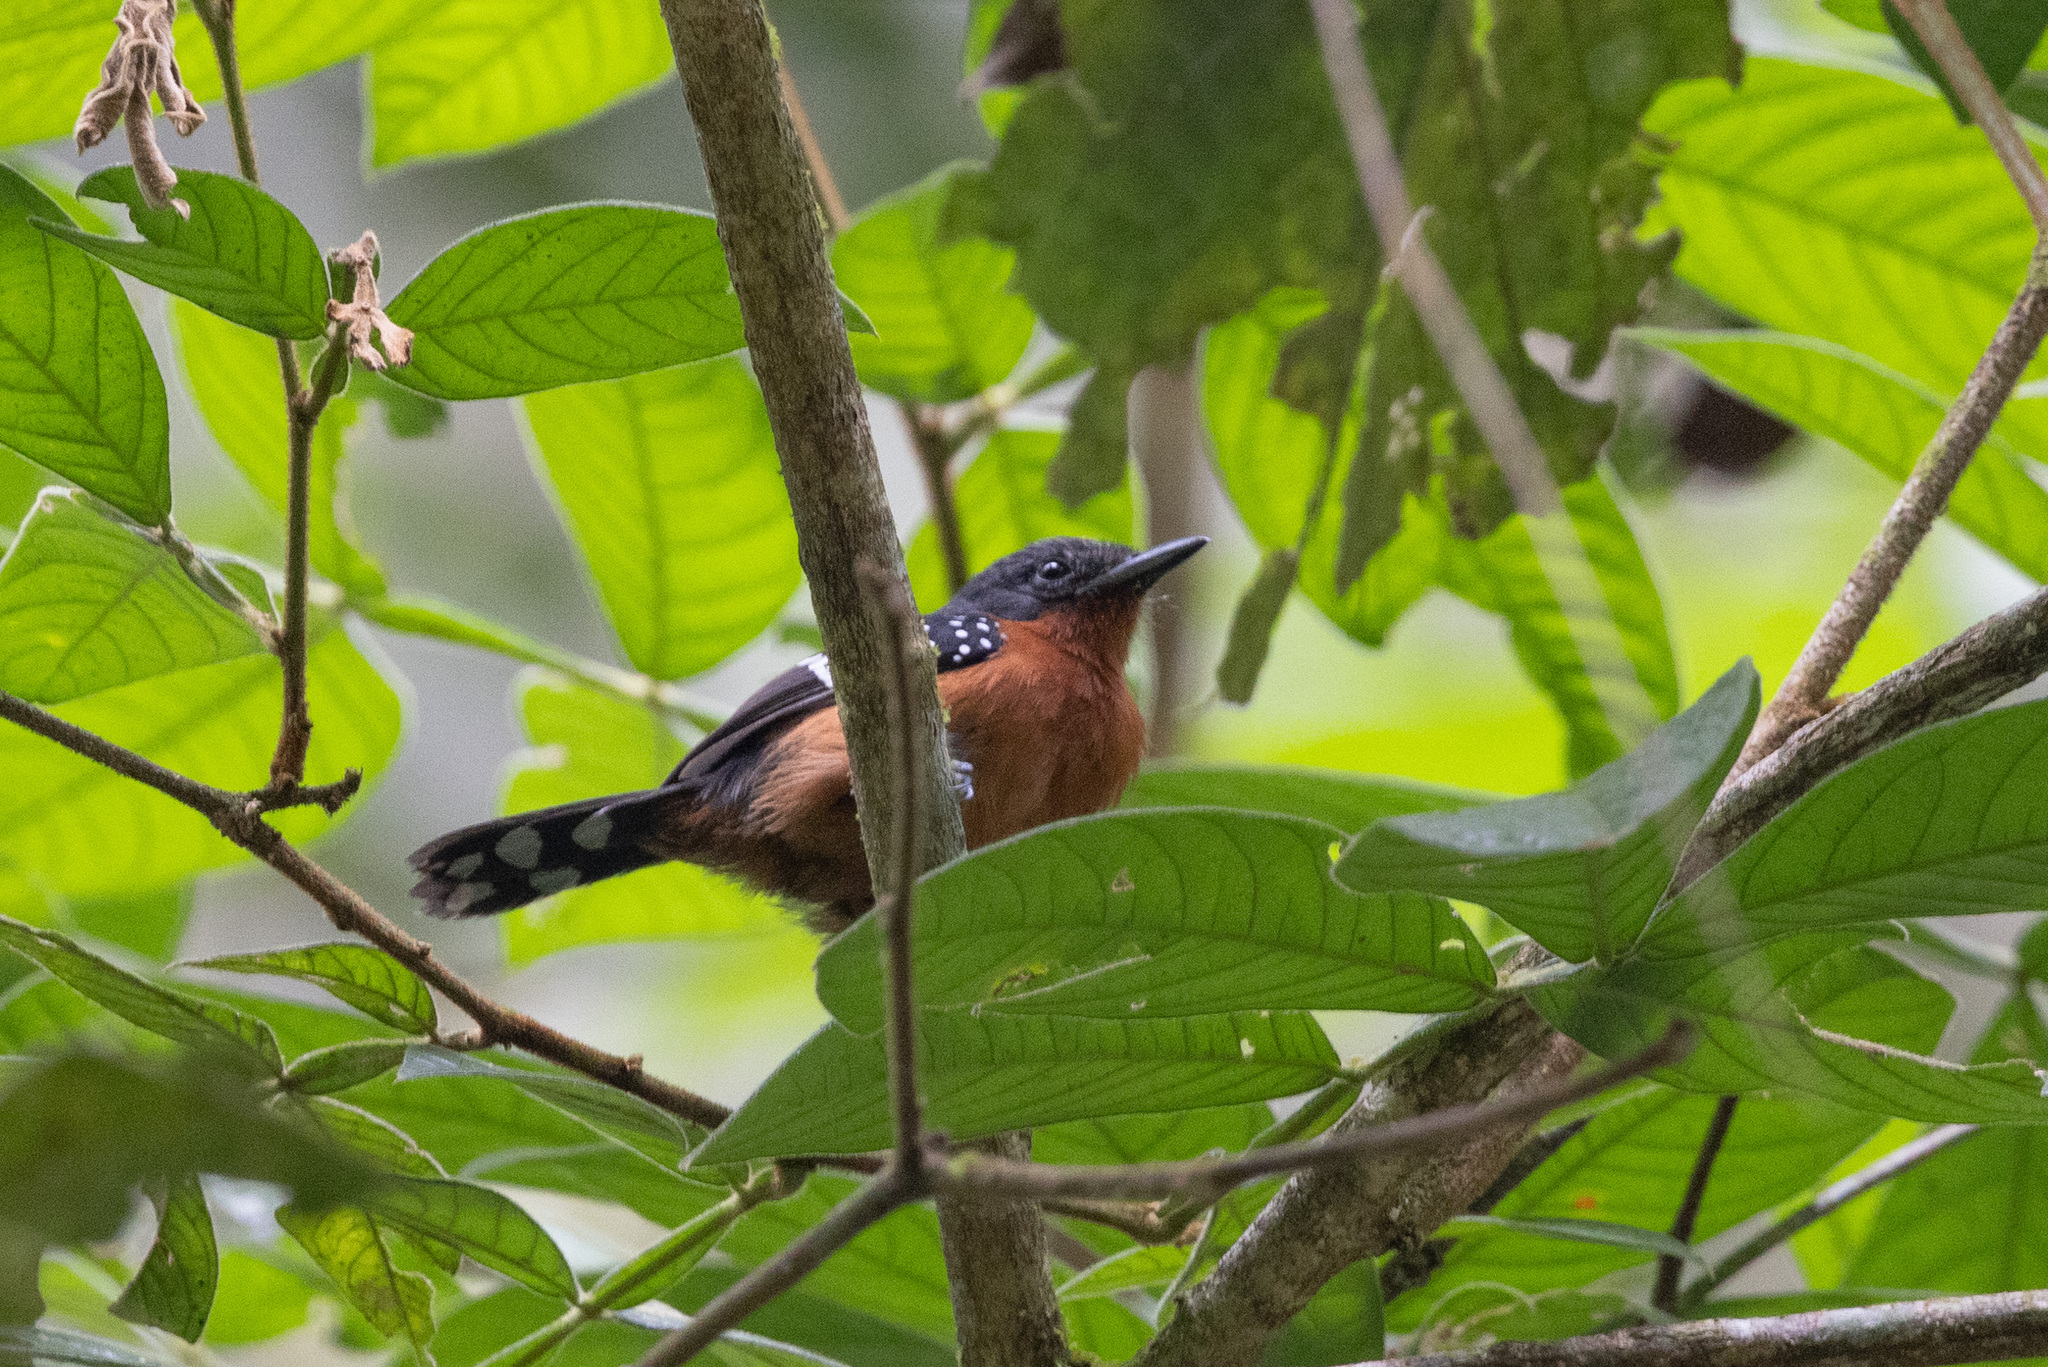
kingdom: Animalia
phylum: Chordata
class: Aves
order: Passeriformes
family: Thamnophilidae
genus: Microrhopias
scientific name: Microrhopias quixensis
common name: Dot-winged antwren
